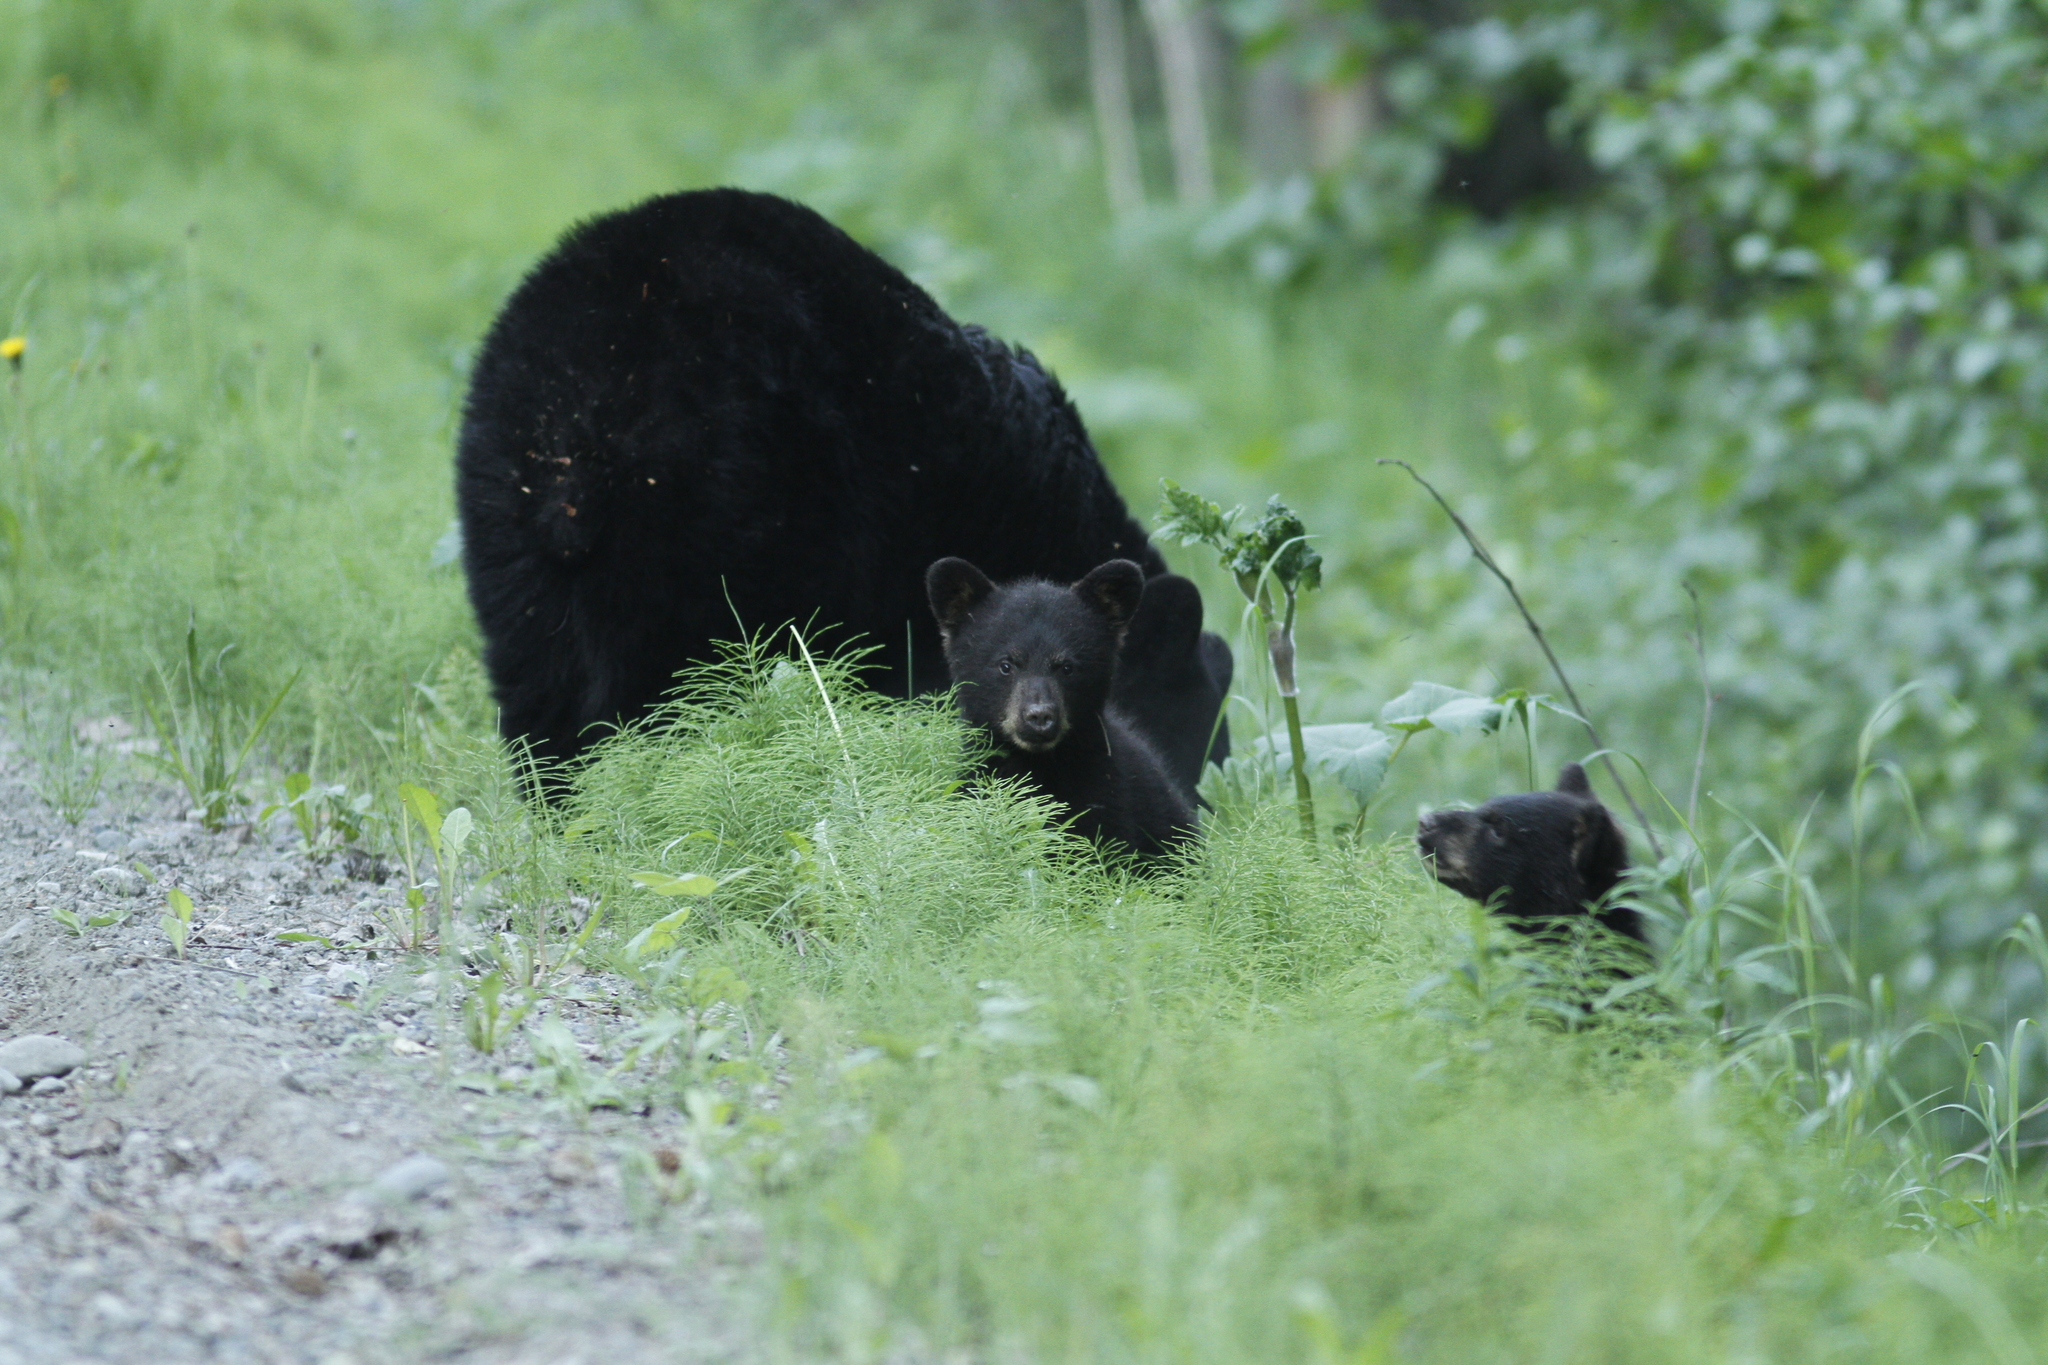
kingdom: Animalia
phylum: Chordata
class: Mammalia
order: Carnivora
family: Ursidae
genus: Ursus
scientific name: Ursus americanus
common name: American black bear
